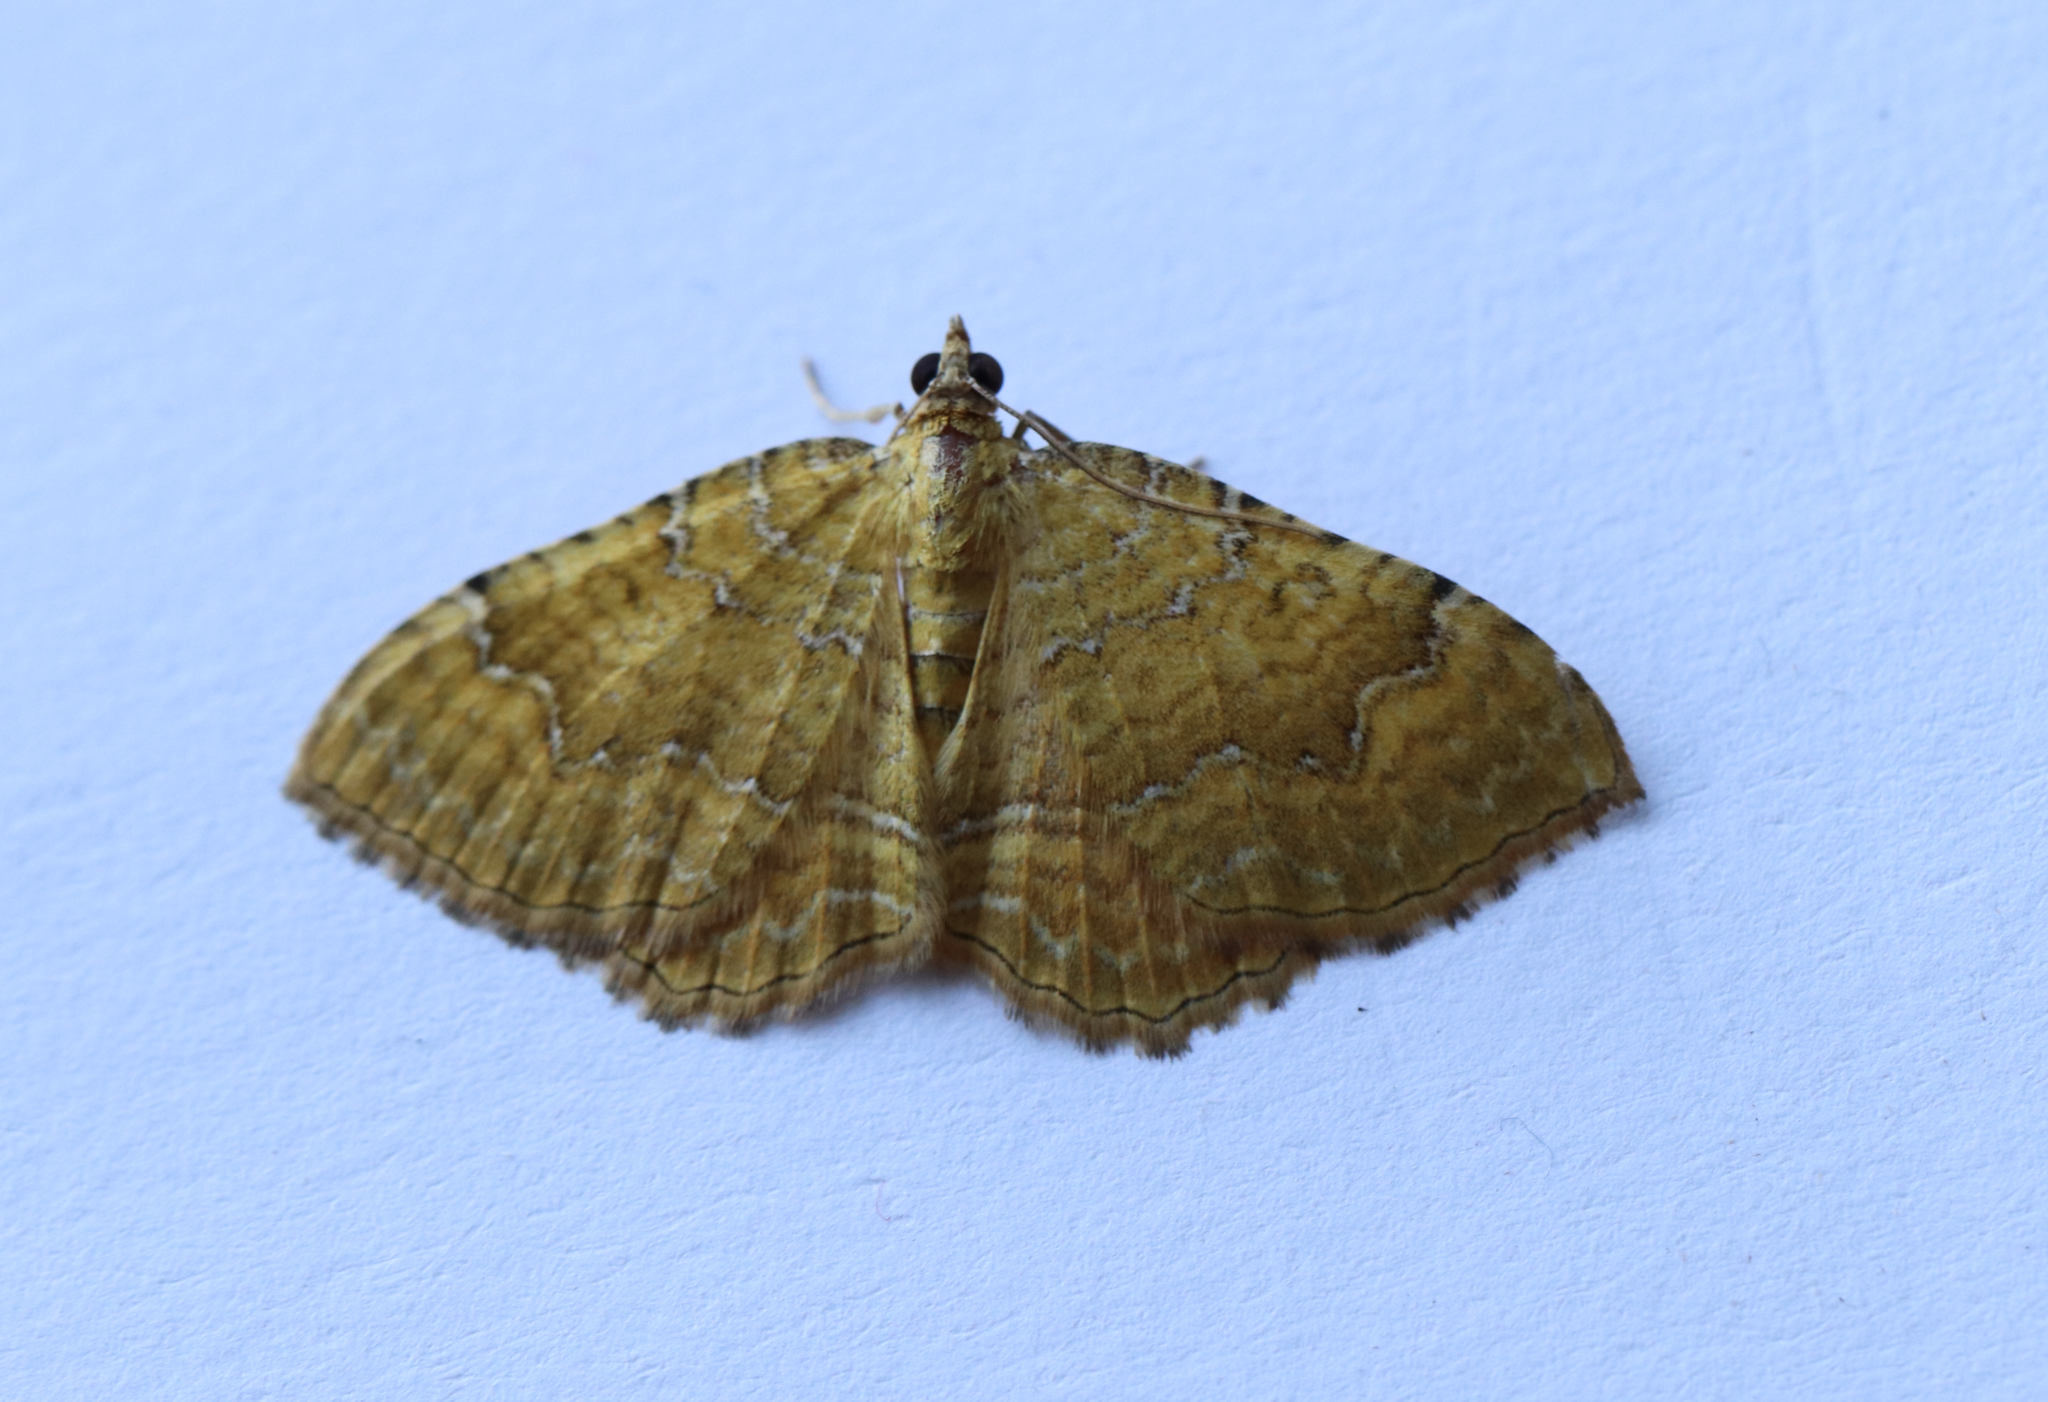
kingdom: Animalia
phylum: Arthropoda
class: Insecta
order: Lepidoptera
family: Geometridae
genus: Camptogramma
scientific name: Camptogramma bilineata
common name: Yellow shell
